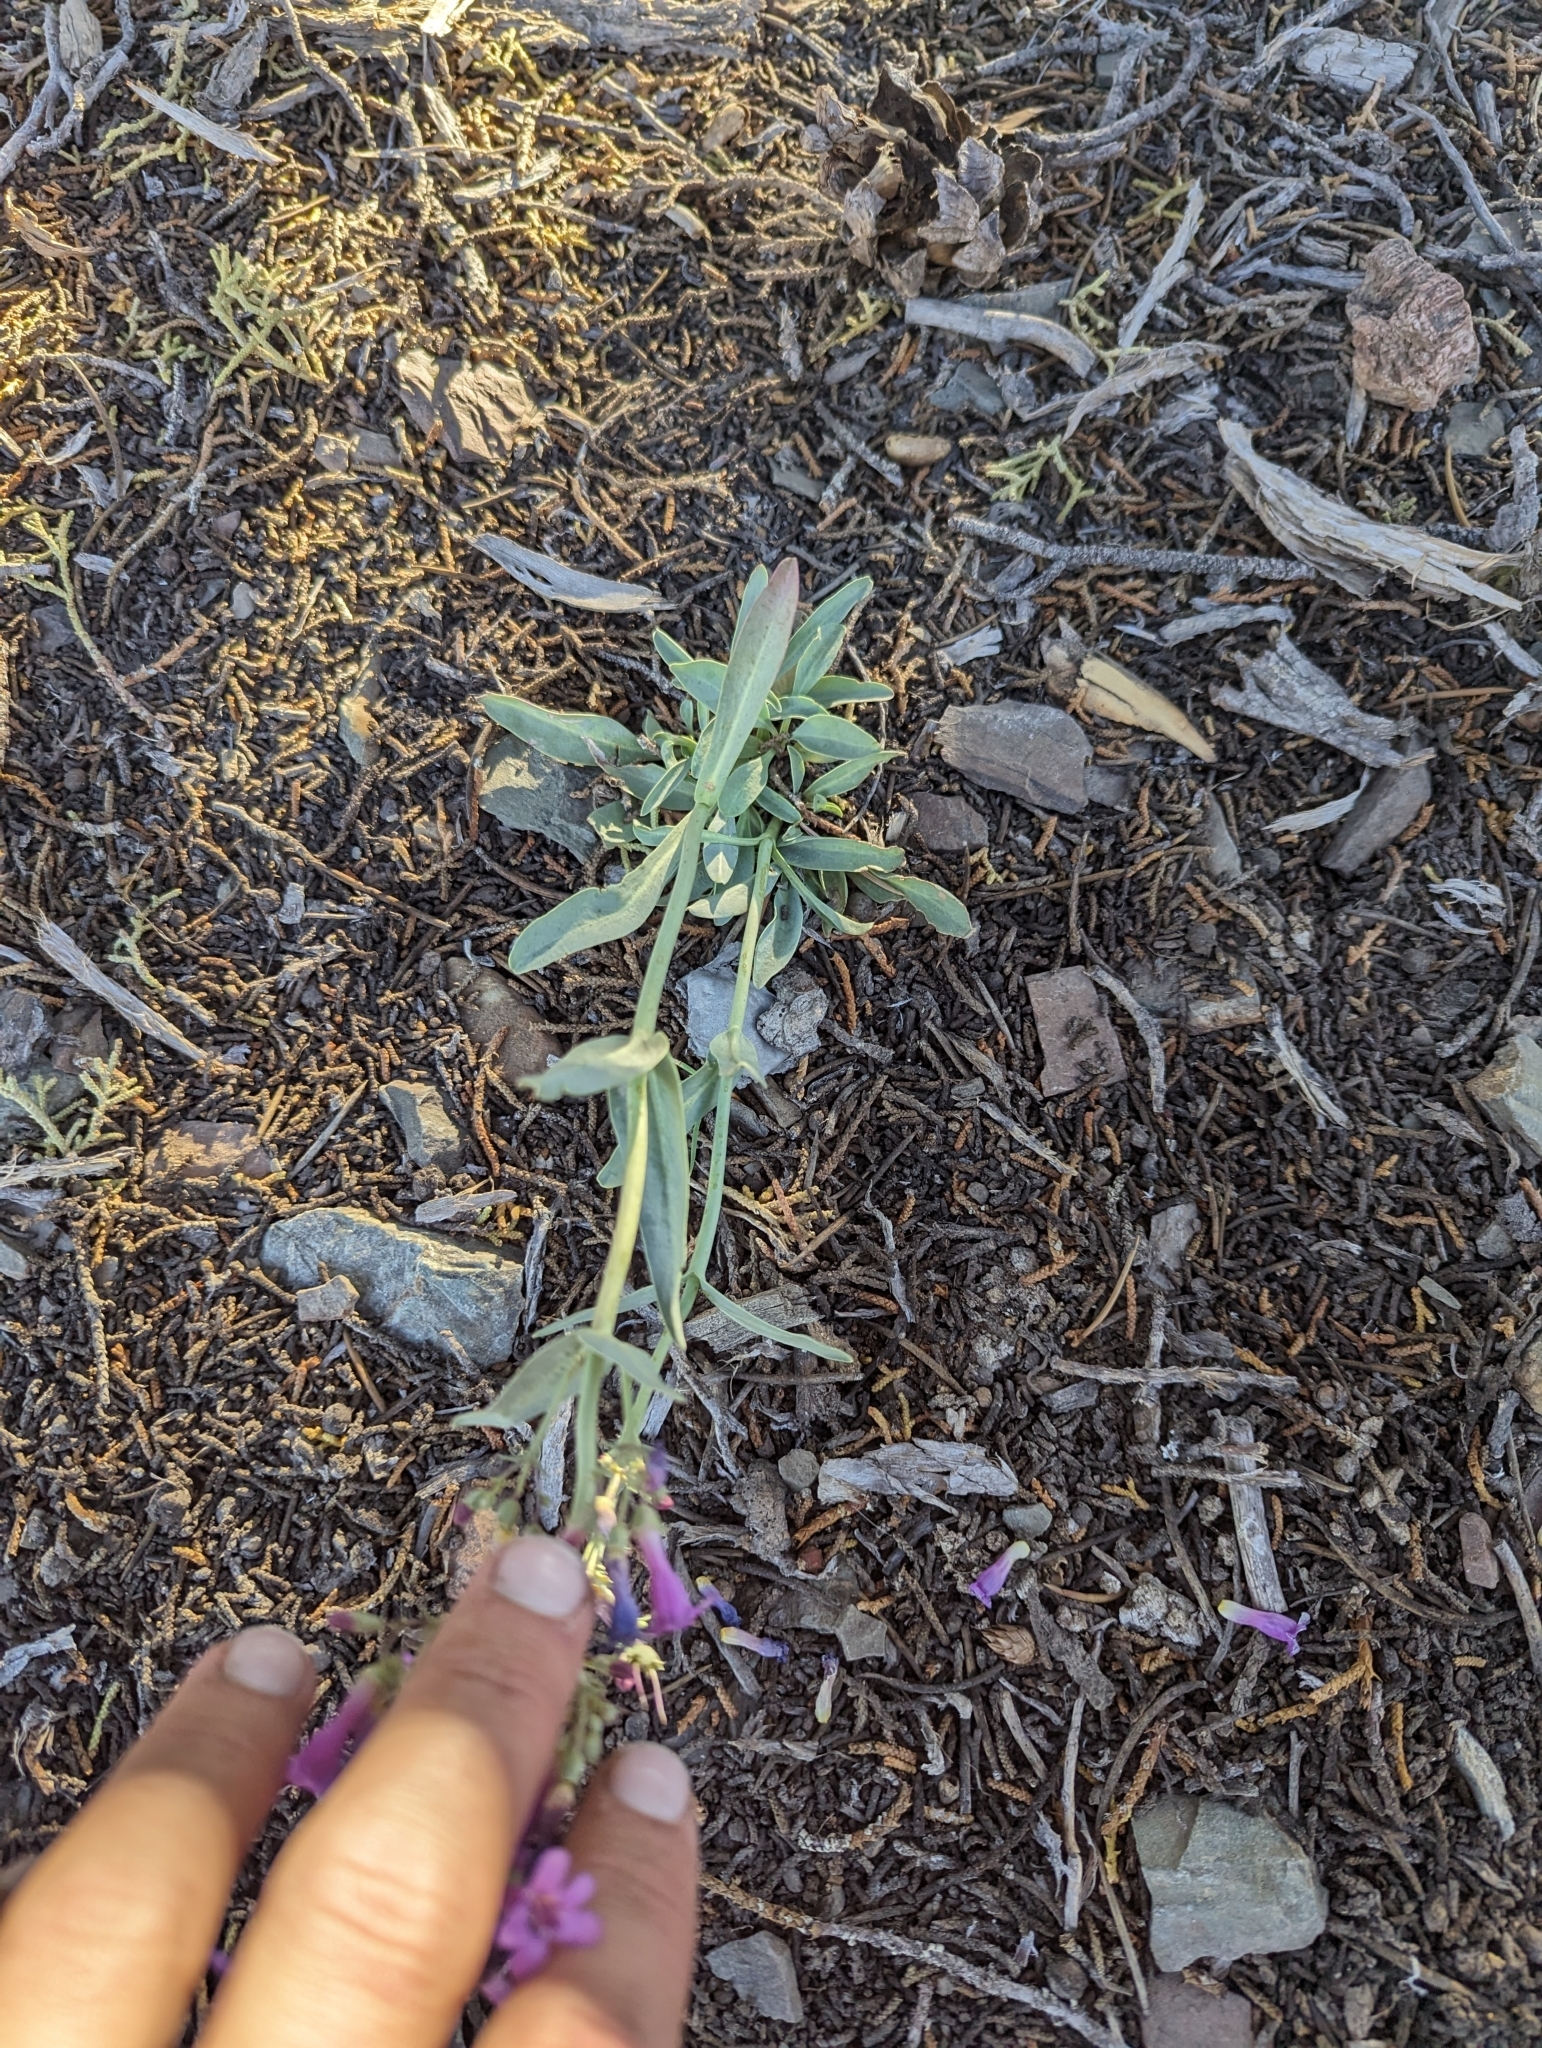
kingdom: Plantae
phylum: Tracheophyta
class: Magnoliopsida
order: Lamiales
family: Plantaginaceae
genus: Penstemon
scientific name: Penstemon patens
